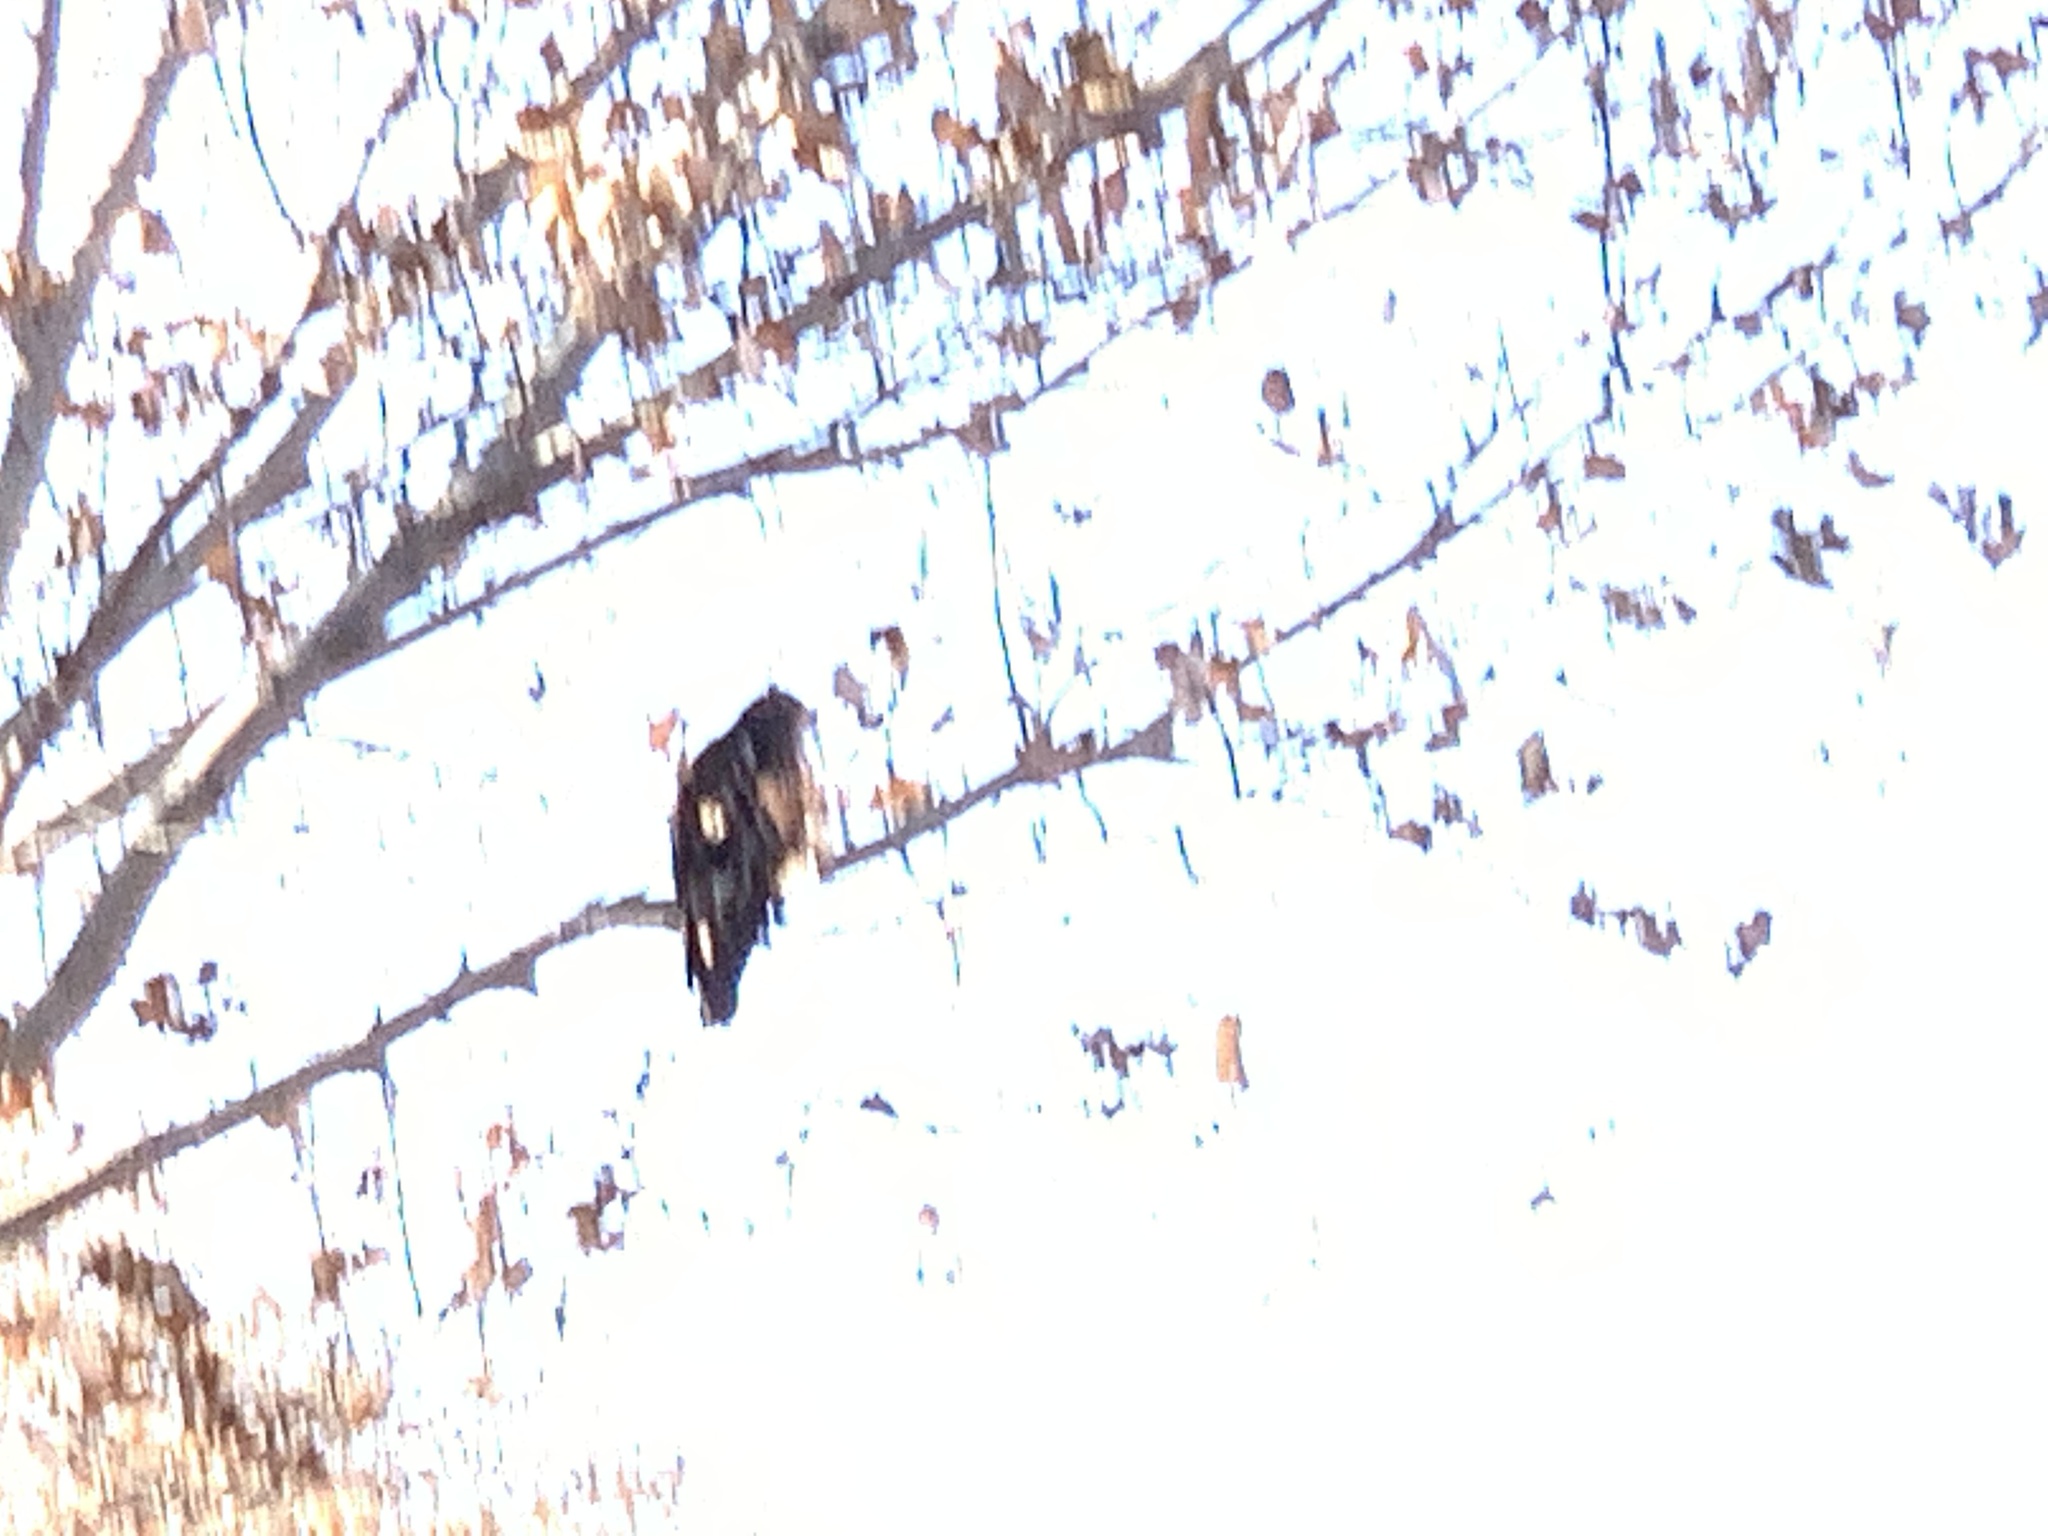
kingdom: Animalia
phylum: Chordata
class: Aves
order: Accipitriformes
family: Accipitridae
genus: Buteo
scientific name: Buteo jamaicensis
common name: Red-tailed hawk
